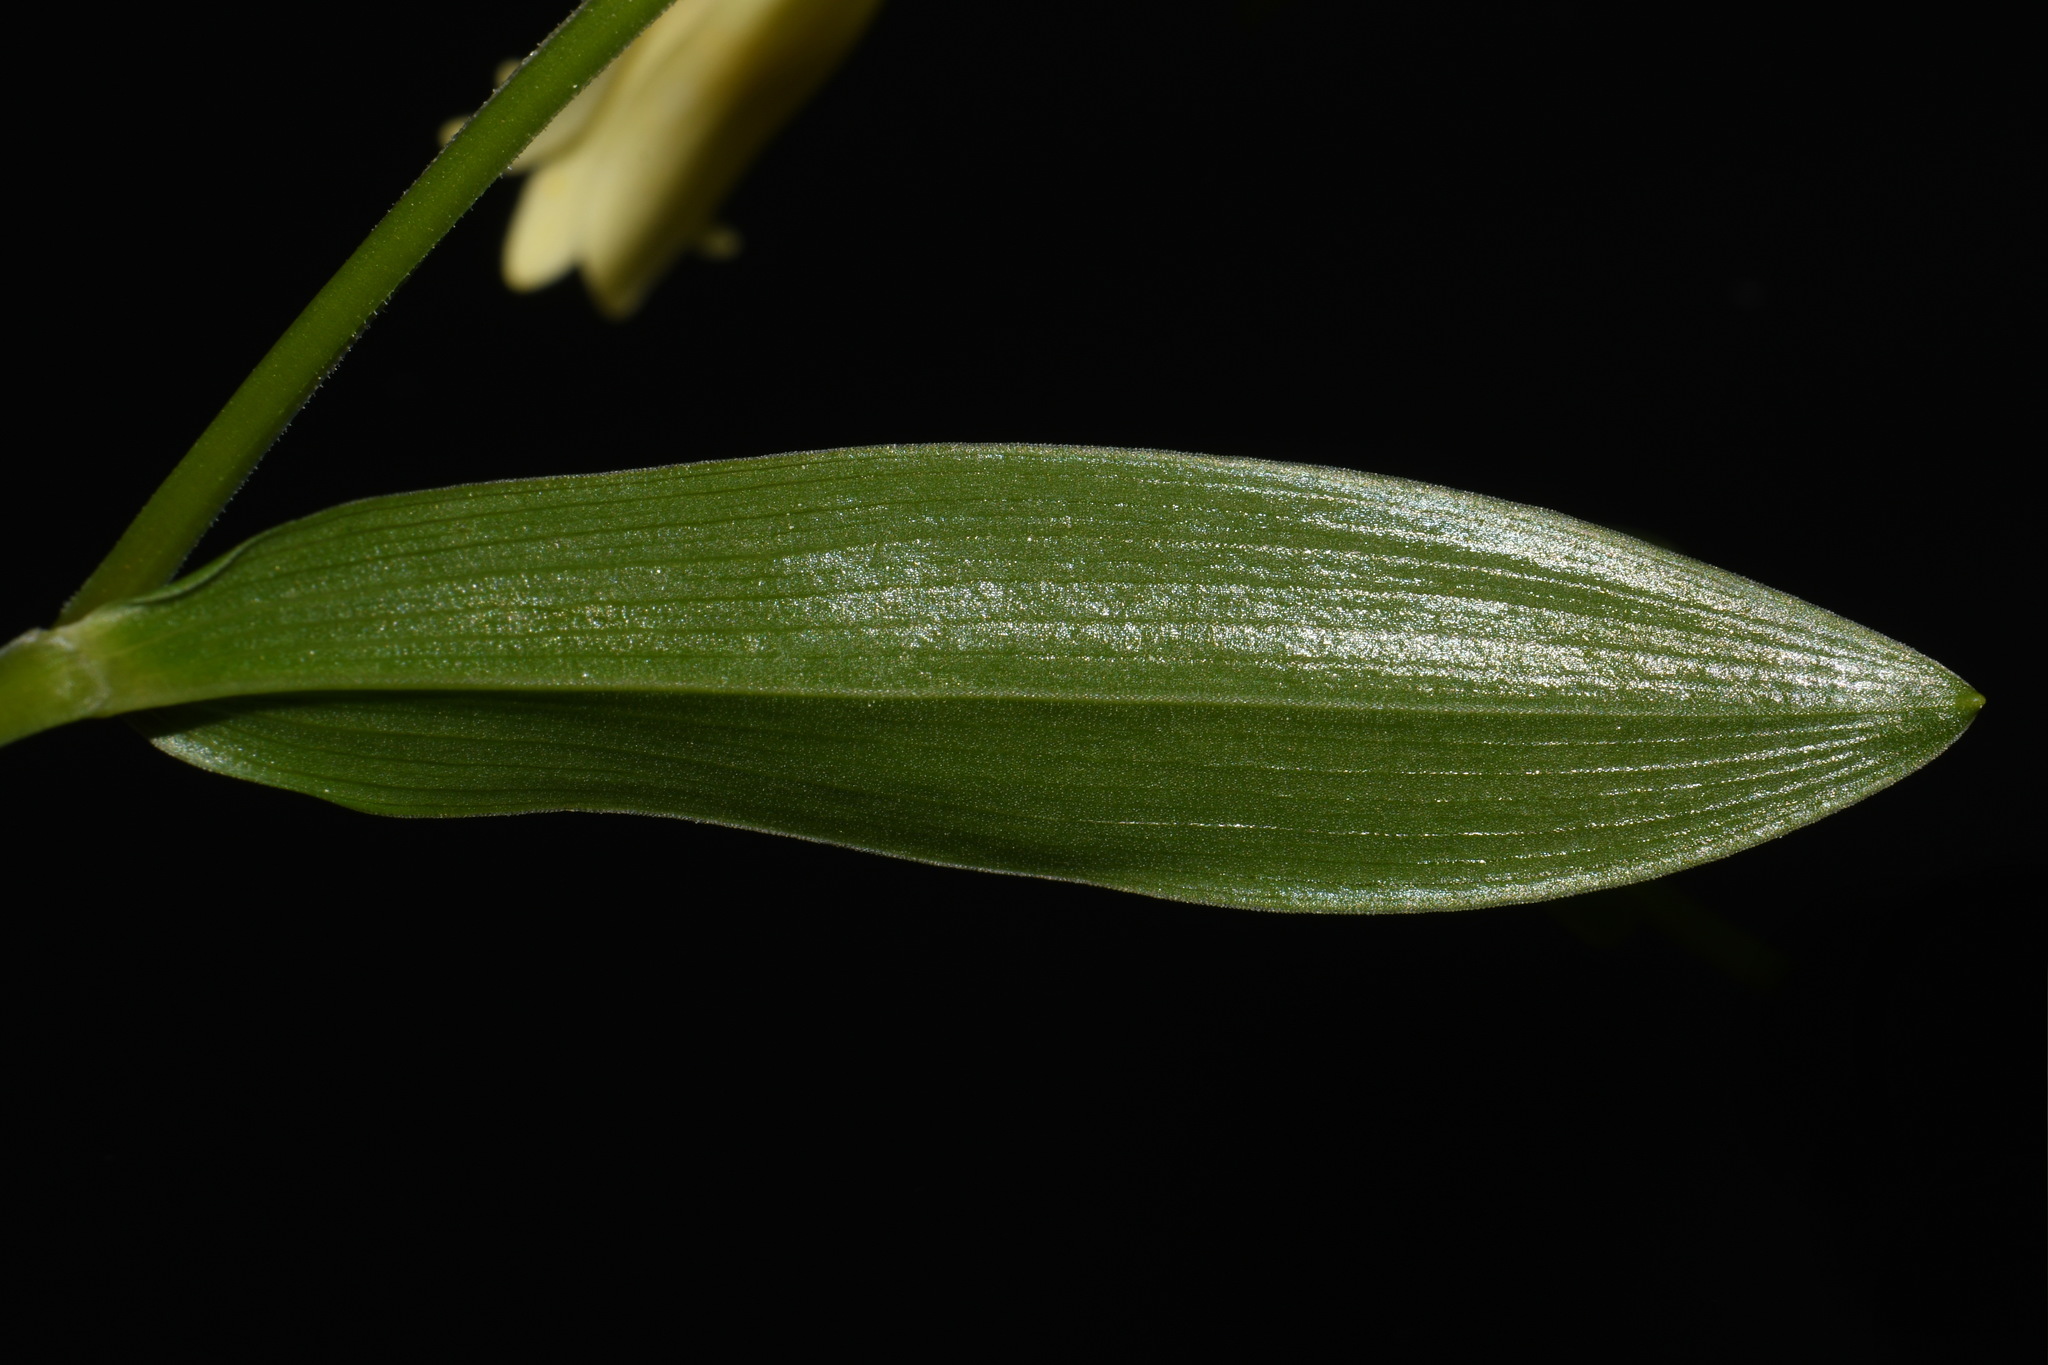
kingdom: Plantae
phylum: Tracheophyta
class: Liliopsida
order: Liliales
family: Colchicaceae
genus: Uvularia
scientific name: Uvularia puberula
